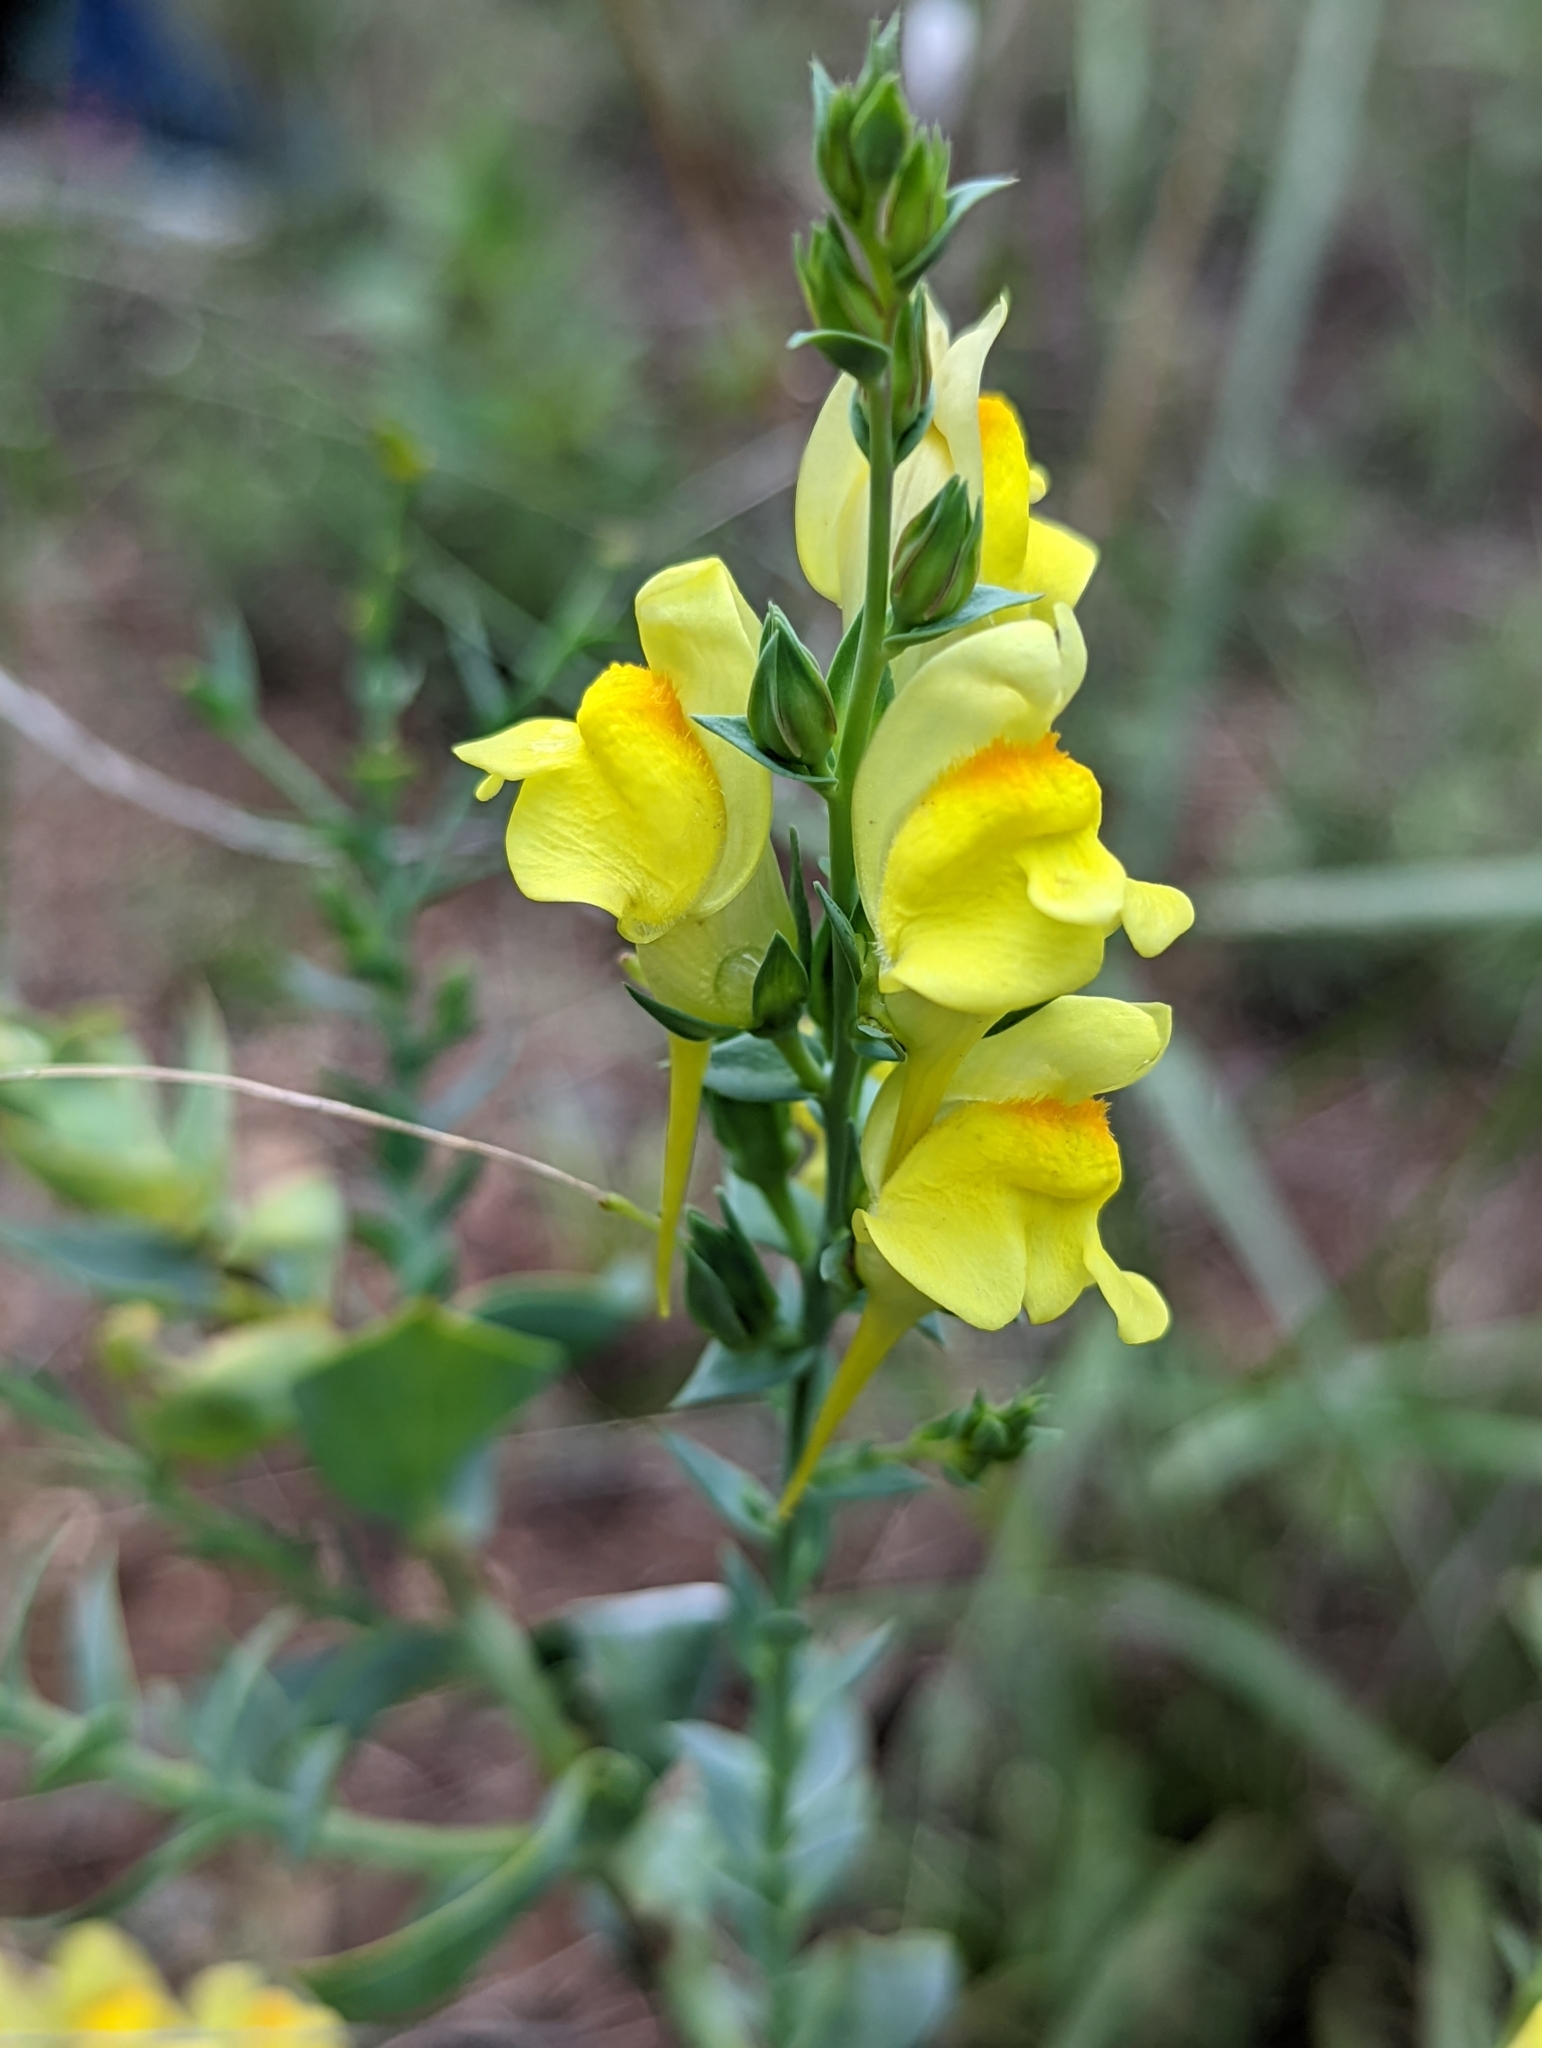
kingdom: Plantae
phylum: Tracheophyta
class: Magnoliopsida
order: Lamiales
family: Plantaginaceae
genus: Linaria
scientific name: Linaria dalmatica
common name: Dalmatian toadflax
